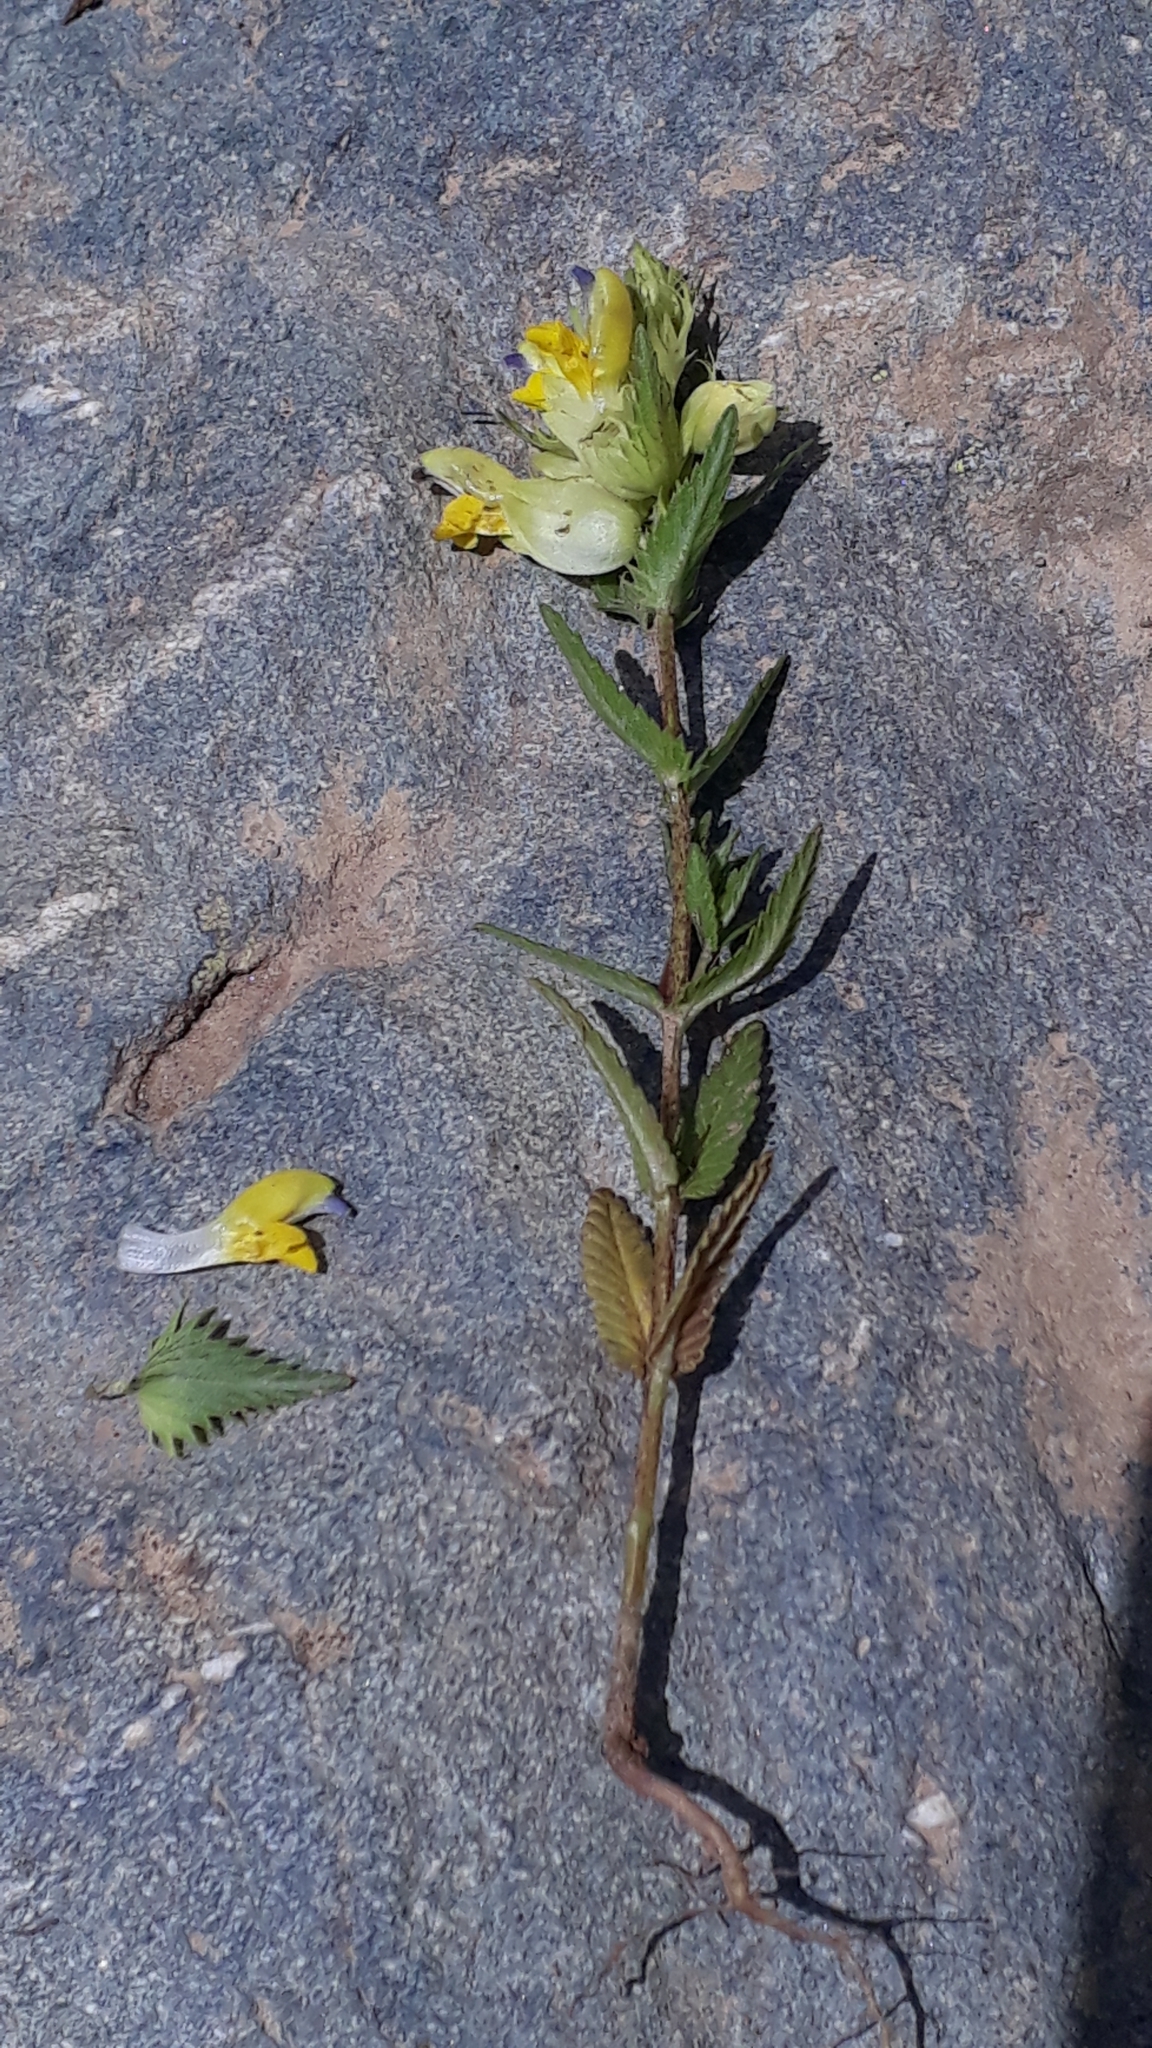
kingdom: Plantae
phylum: Tracheophyta
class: Magnoliopsida
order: Lamiales
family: Orobanchaceae
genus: Rhinanthus
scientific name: Rhinanthus glacialis
